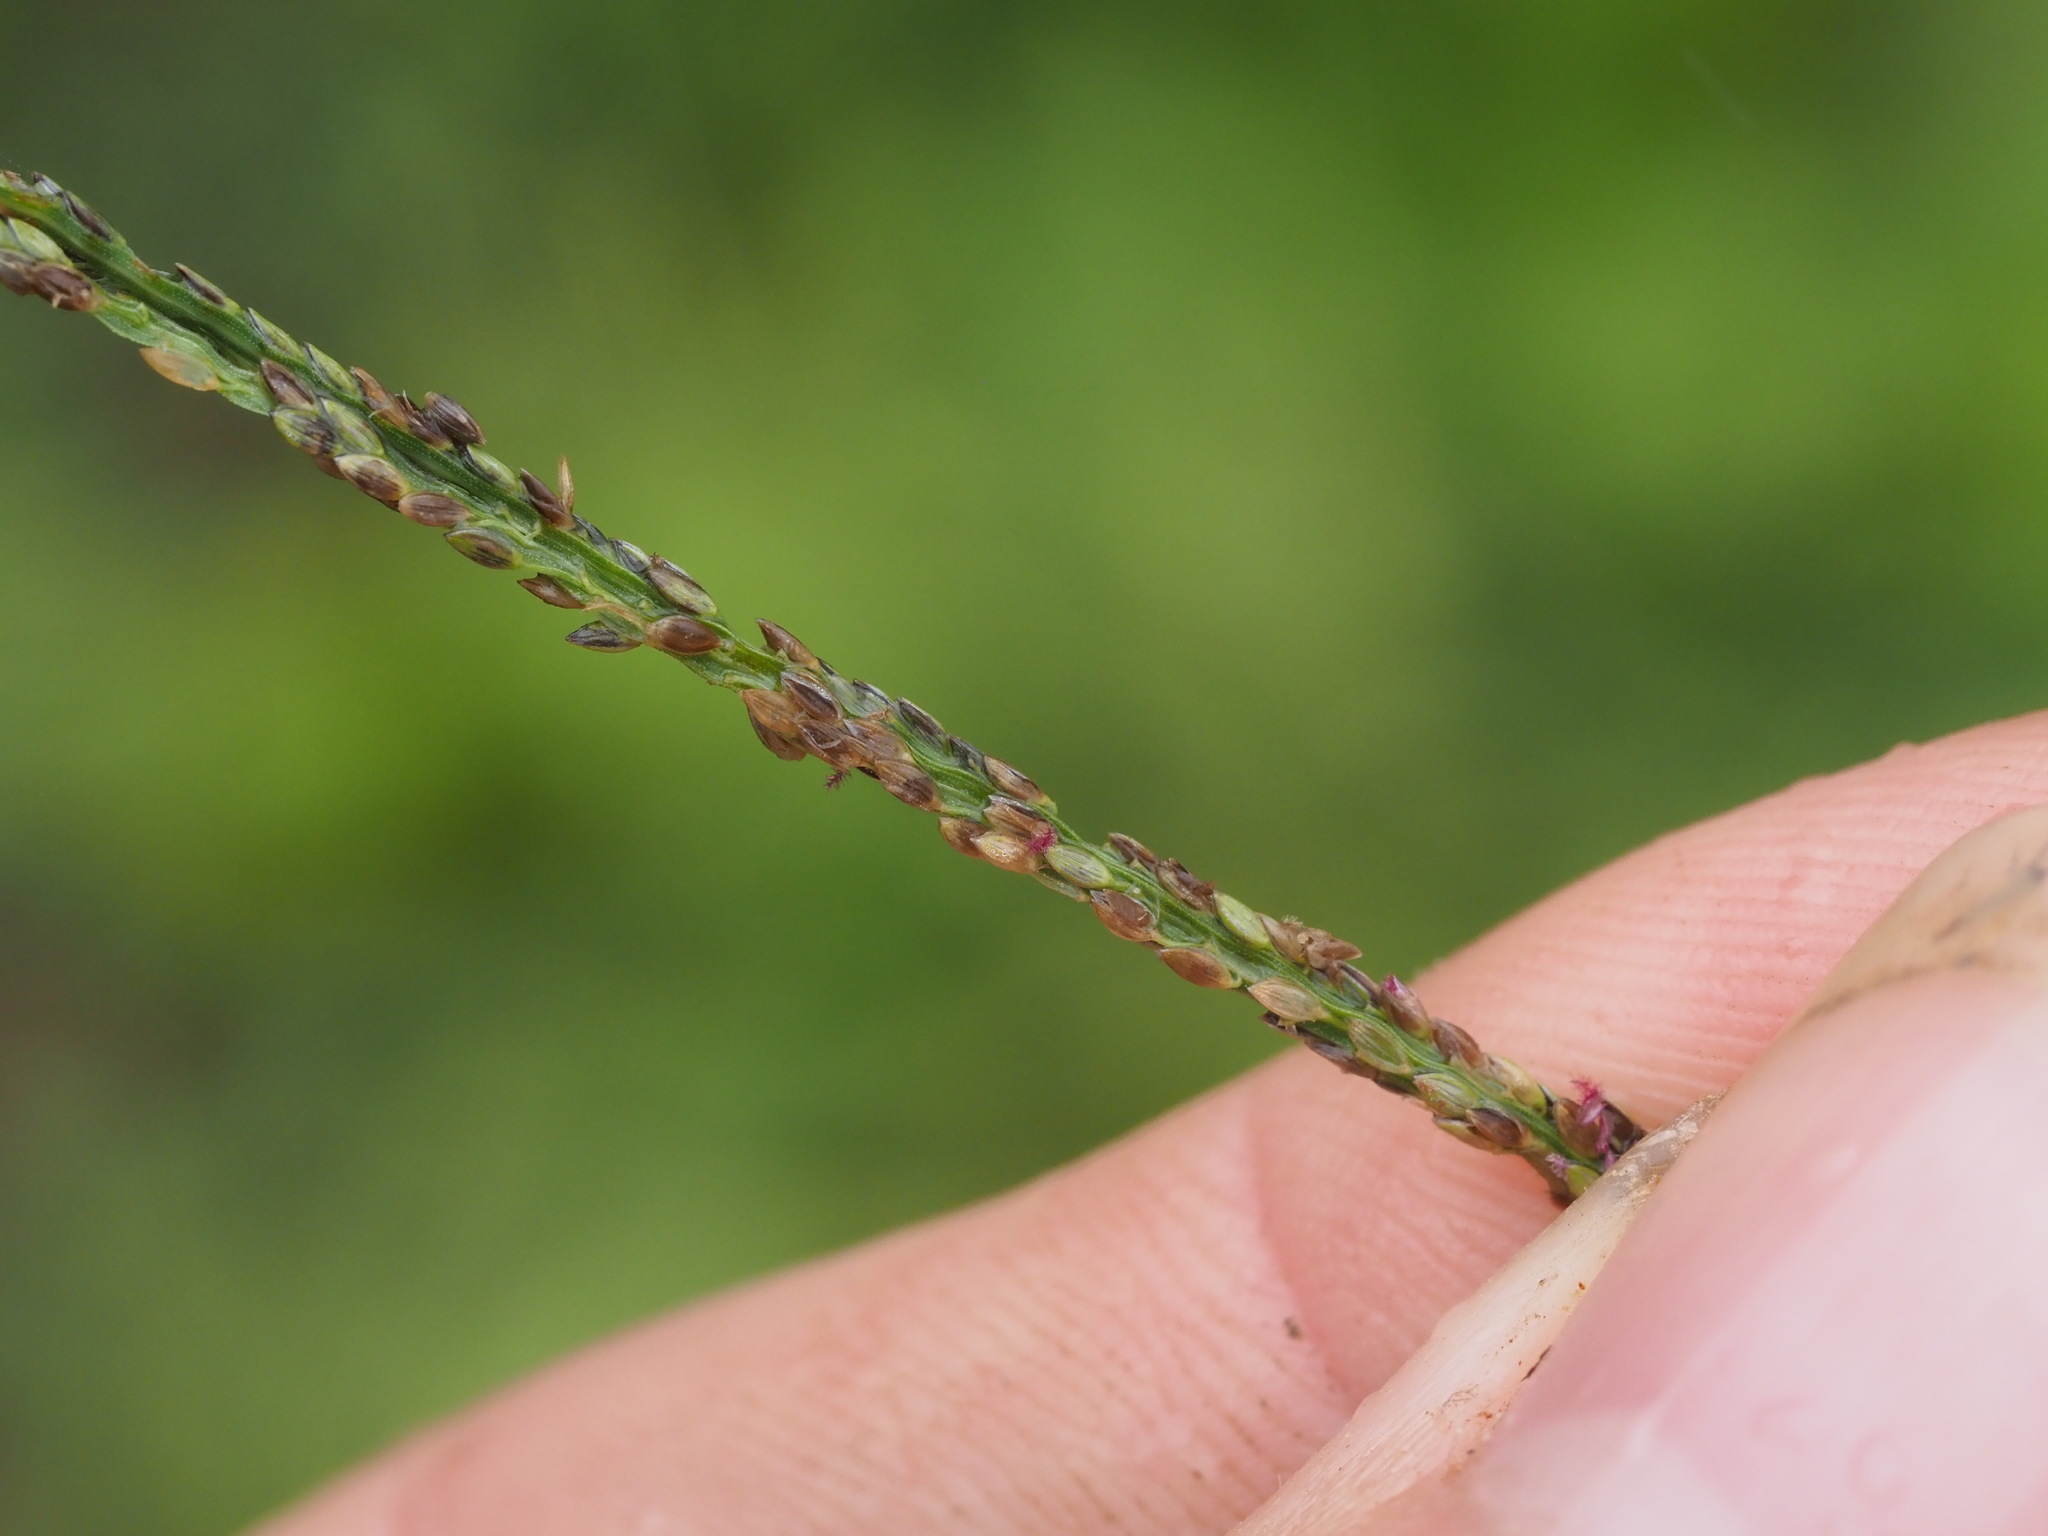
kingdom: Plantae
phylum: Tracheophyta
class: Liliopsida
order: Poales
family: Poaceae
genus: Digitaria
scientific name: Digitaria violascens
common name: Violet crabgrass
